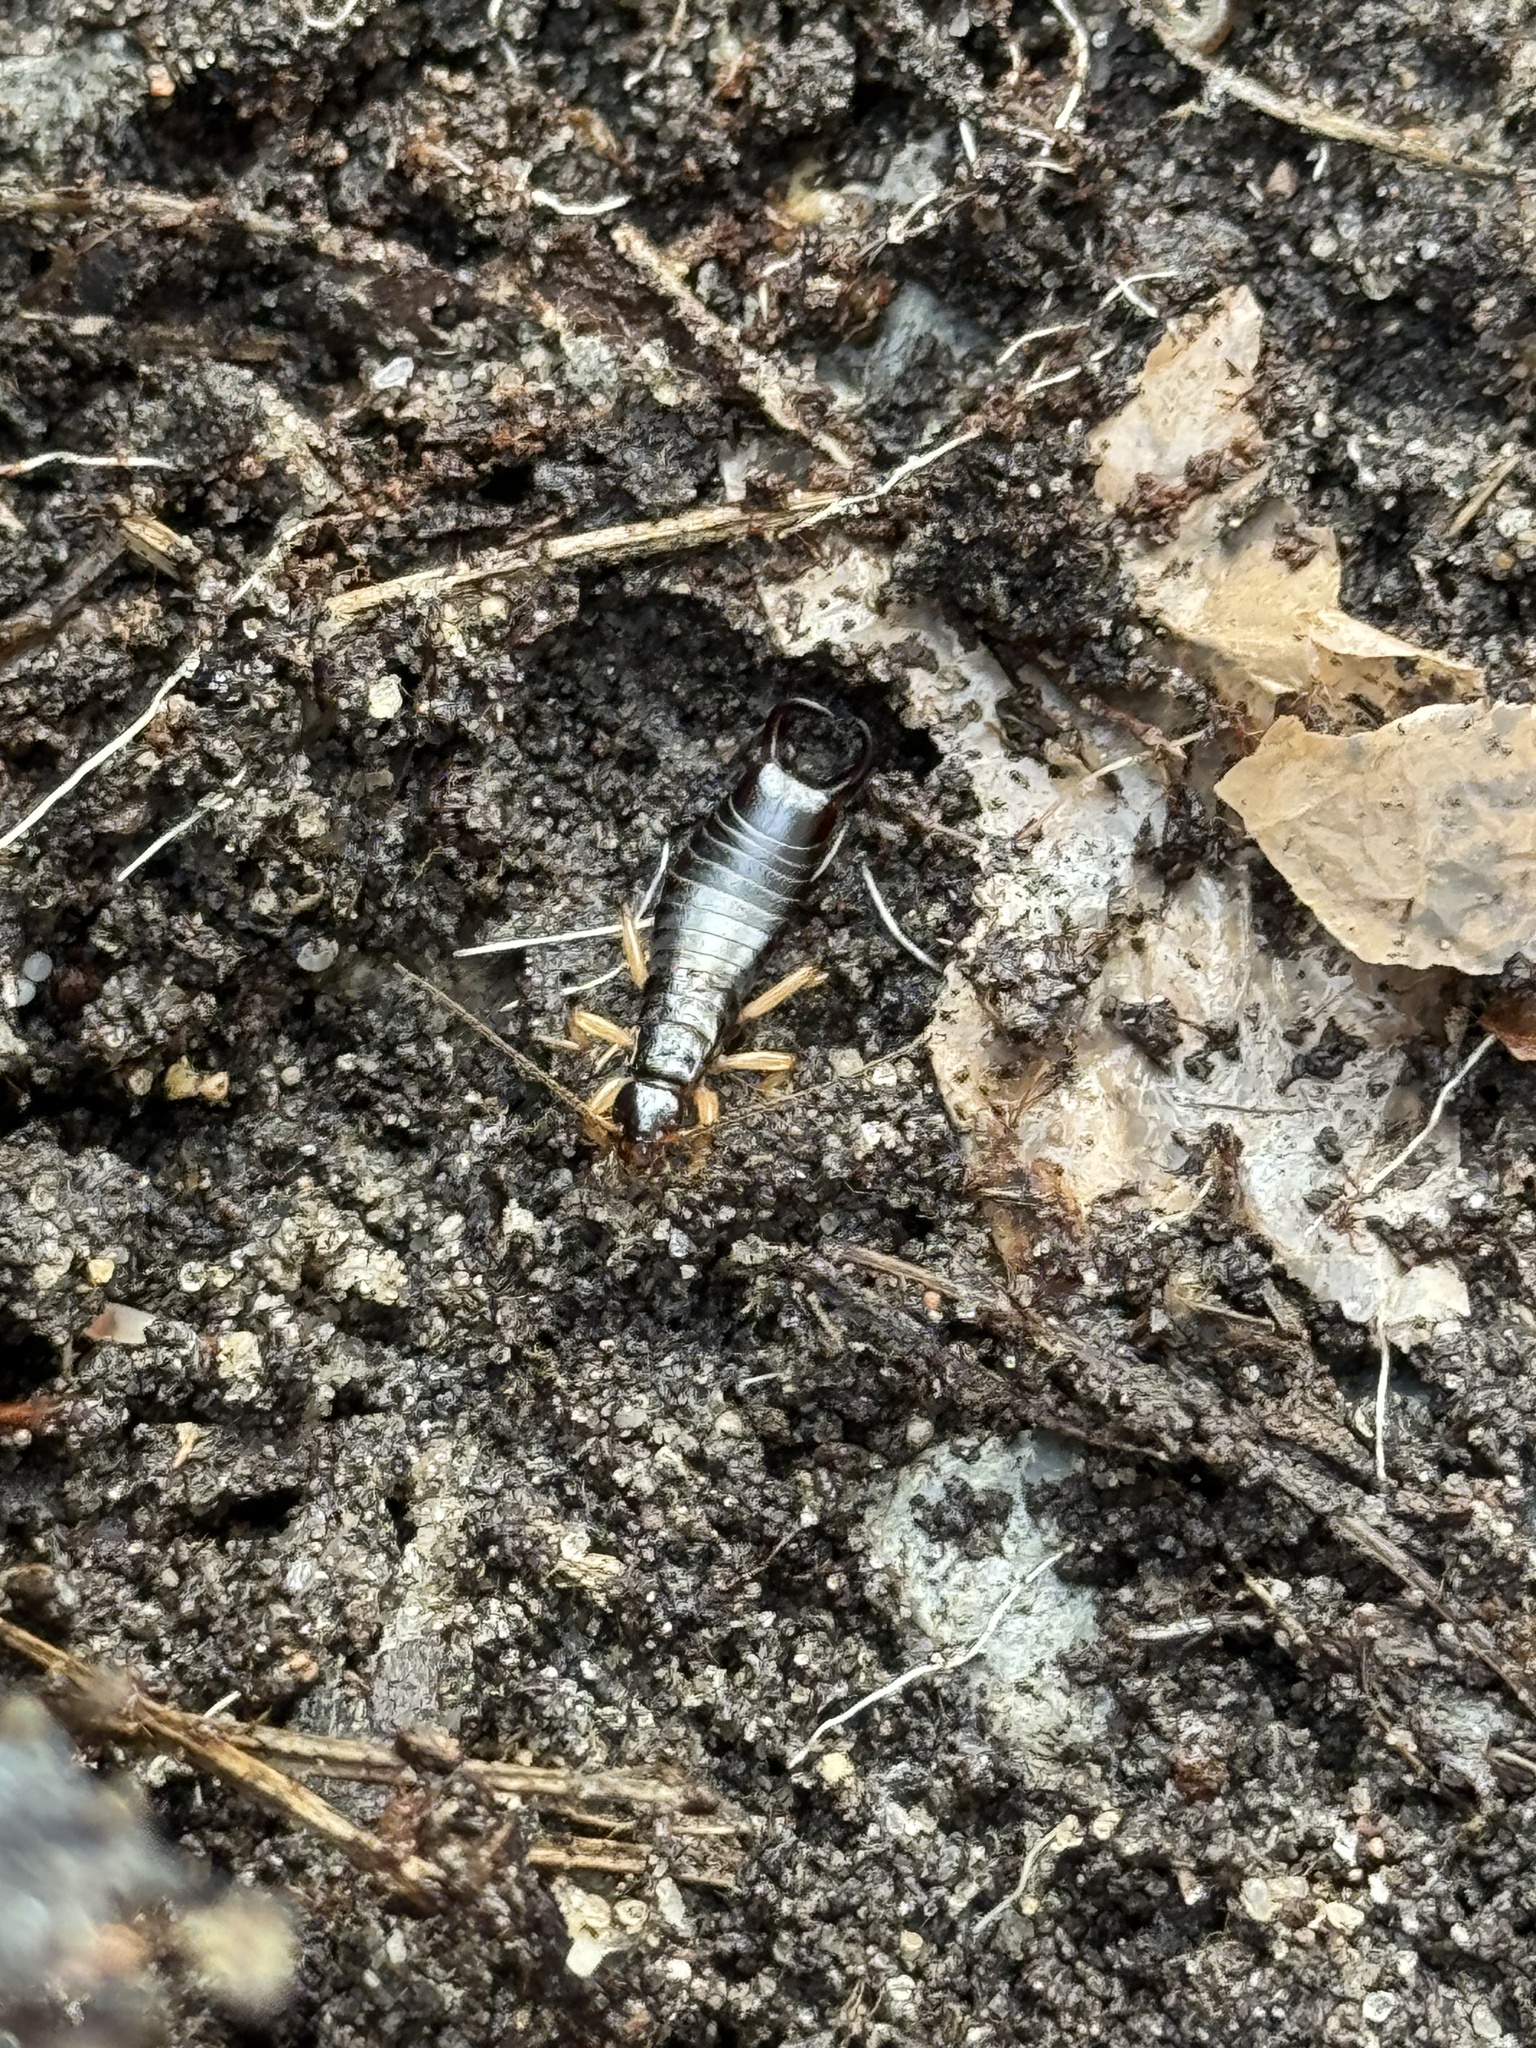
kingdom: Animalia
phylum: Arthropoda
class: Insecta
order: Dermaptera
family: Anisolabididae
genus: Anisolabis
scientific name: Anisolabis maritima
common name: Maritime earwig
